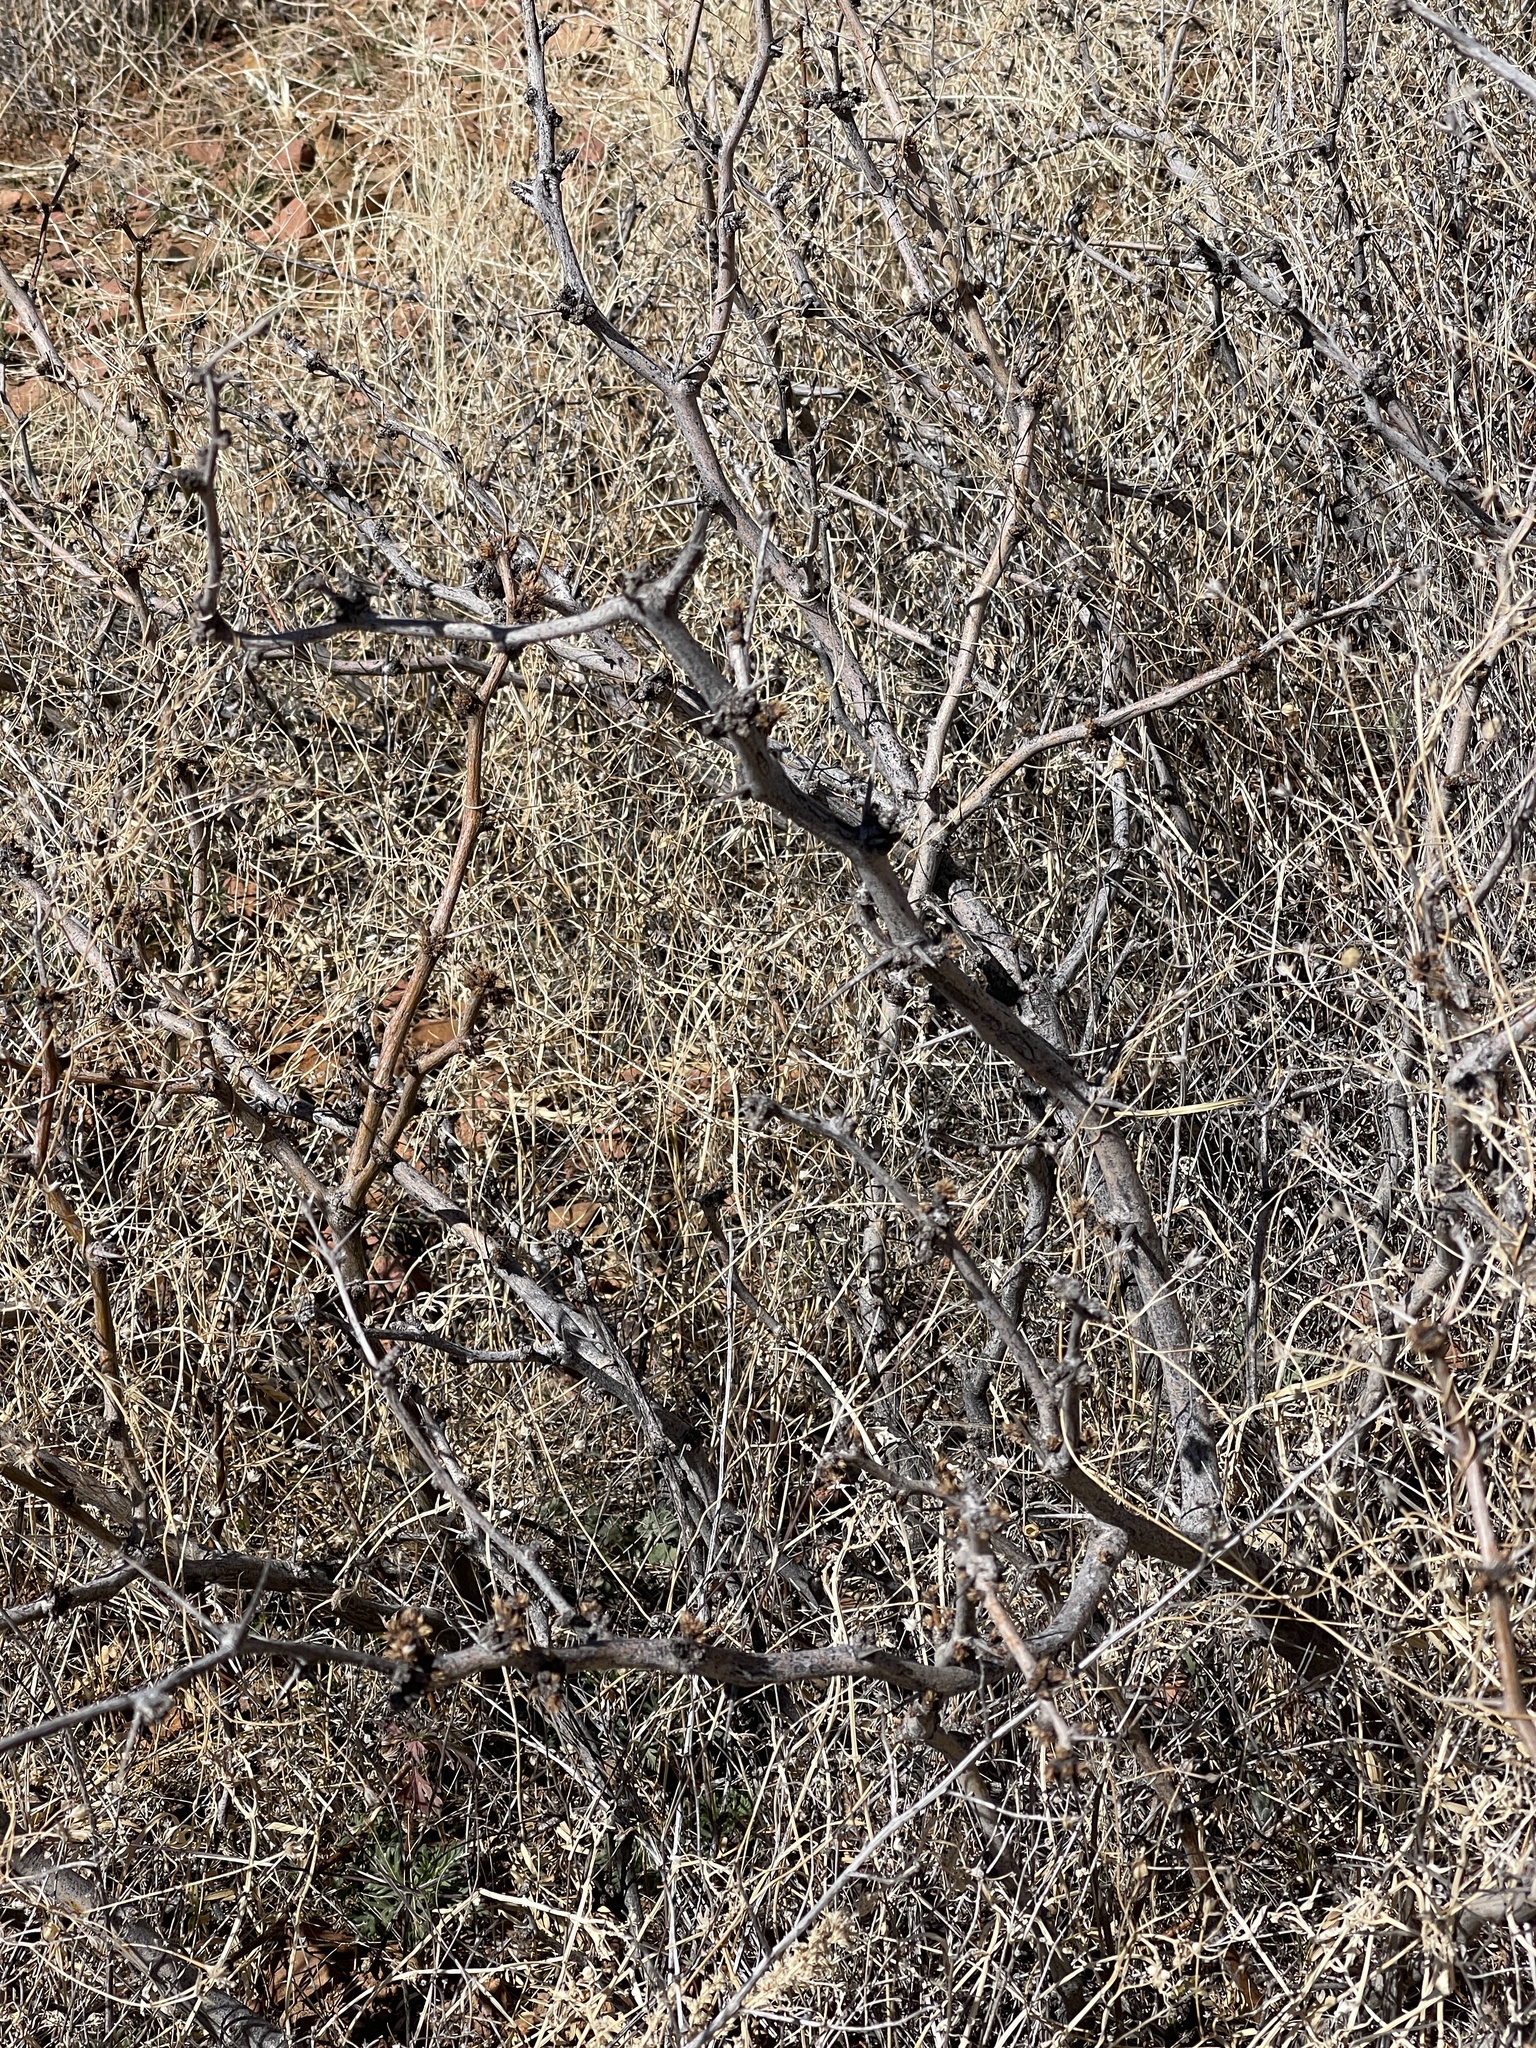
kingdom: Plantae
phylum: Tracheophyta
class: Magnoliopsida
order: Fabales
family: Fabaceae
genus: Prosopis
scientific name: Prosopis glandulosa
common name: Honey mesquite
